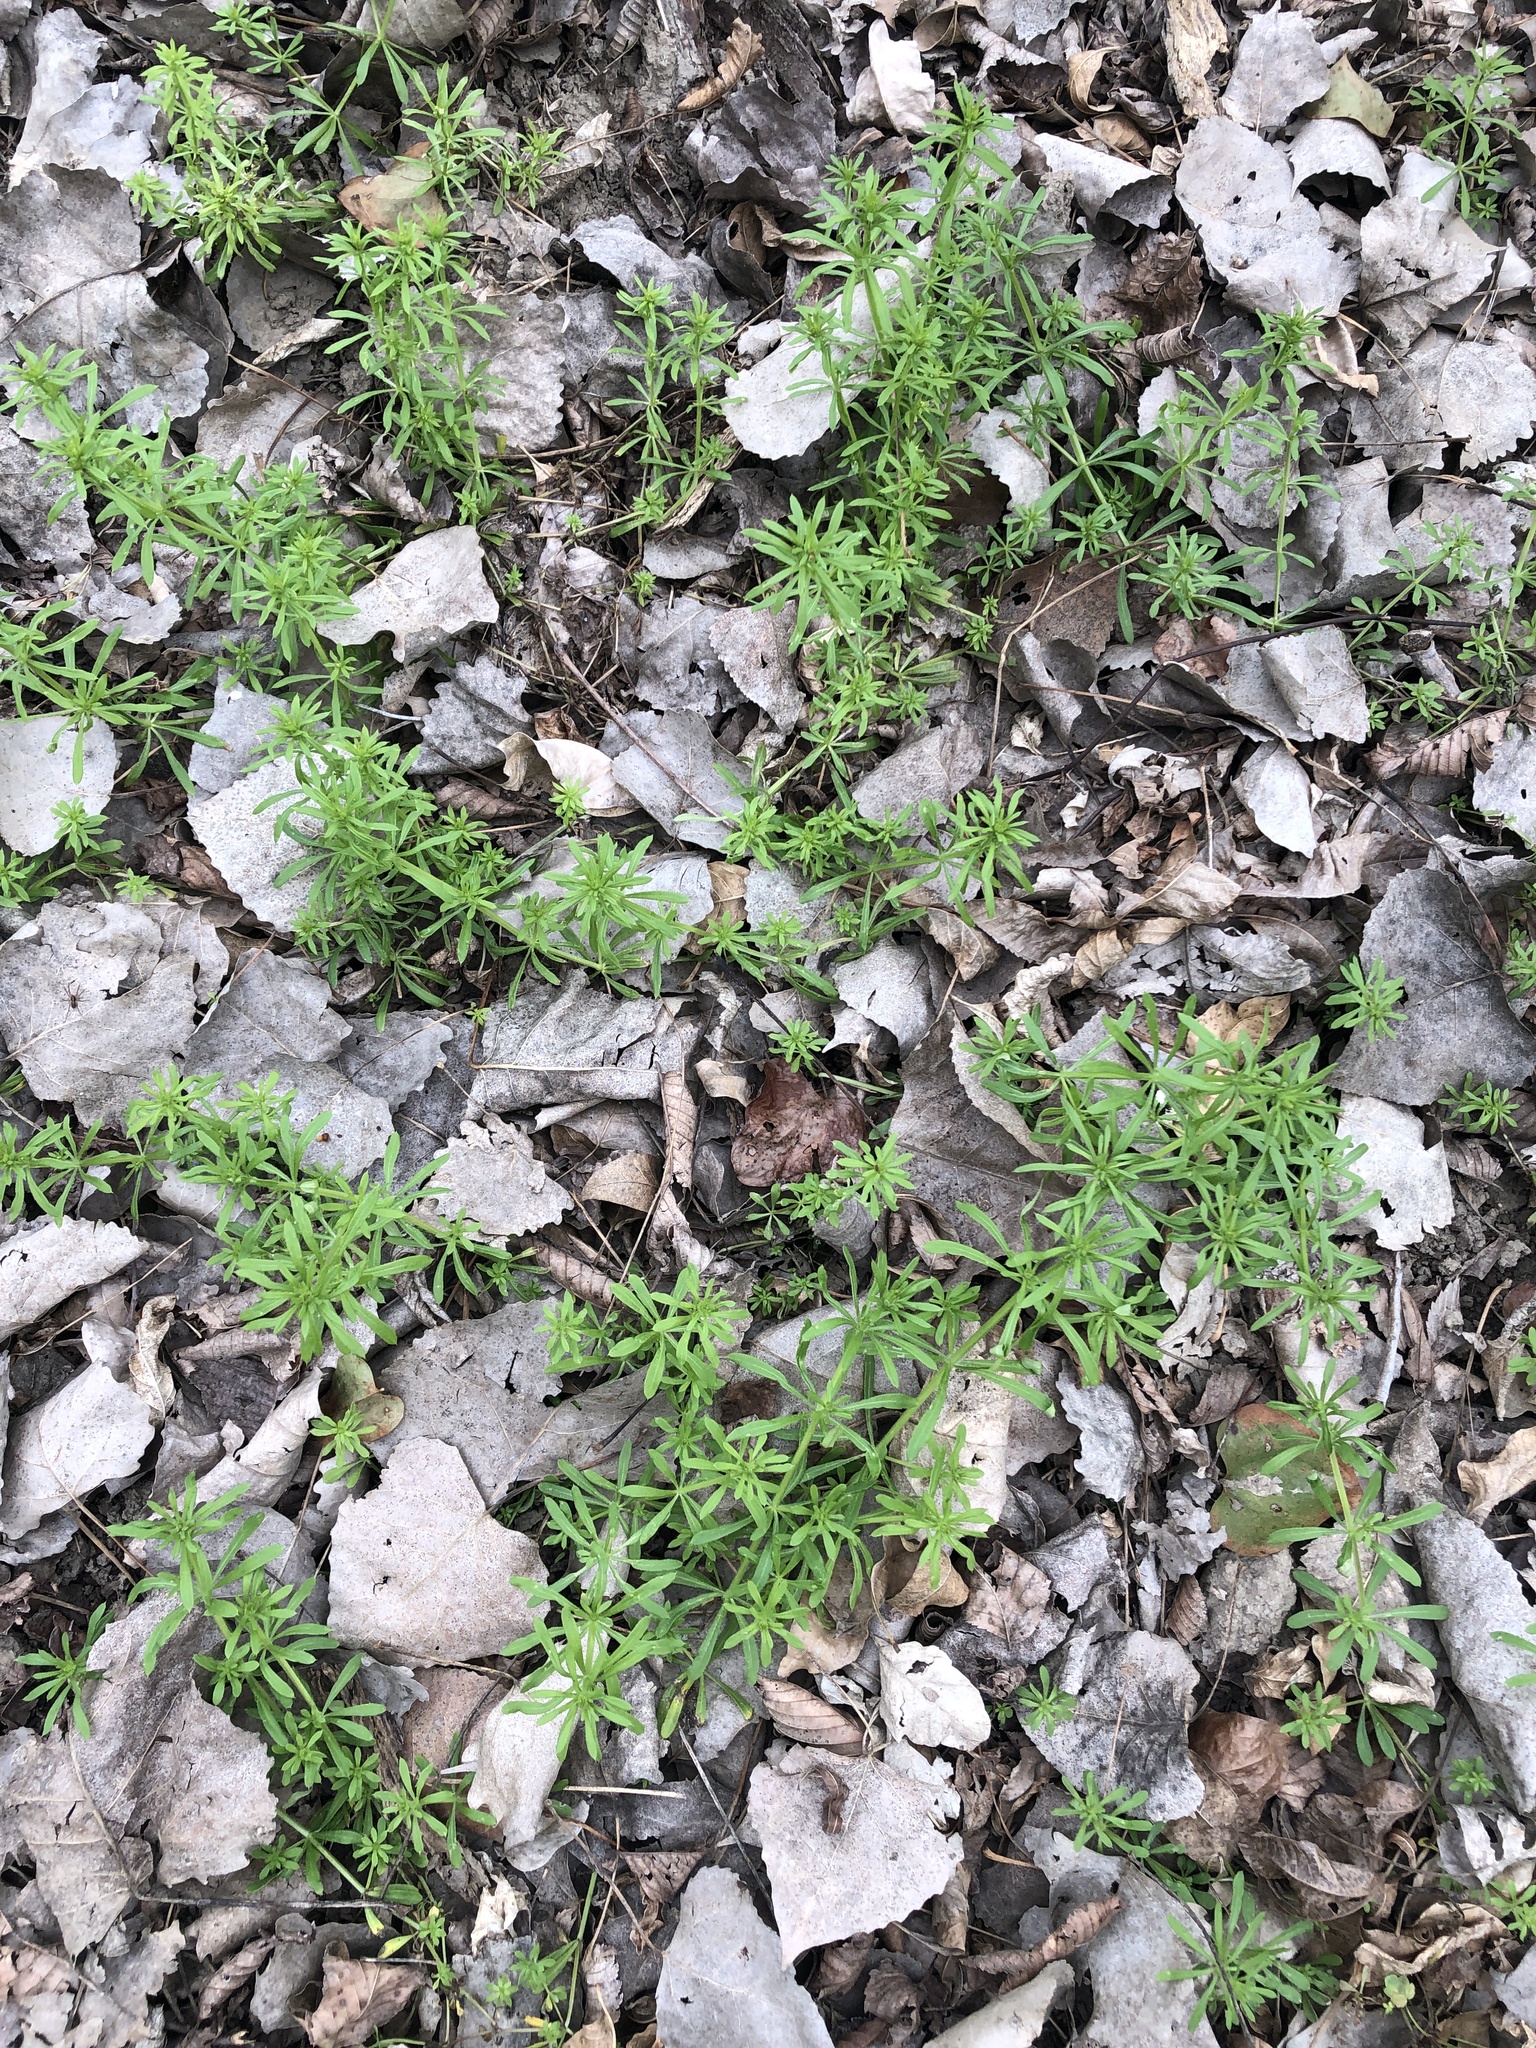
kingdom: Plantae
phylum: Tracheophyta
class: Magnoliopsida
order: Gentianales
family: Rubiaceae
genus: Galium
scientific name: Galium aparine
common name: Cleavers
